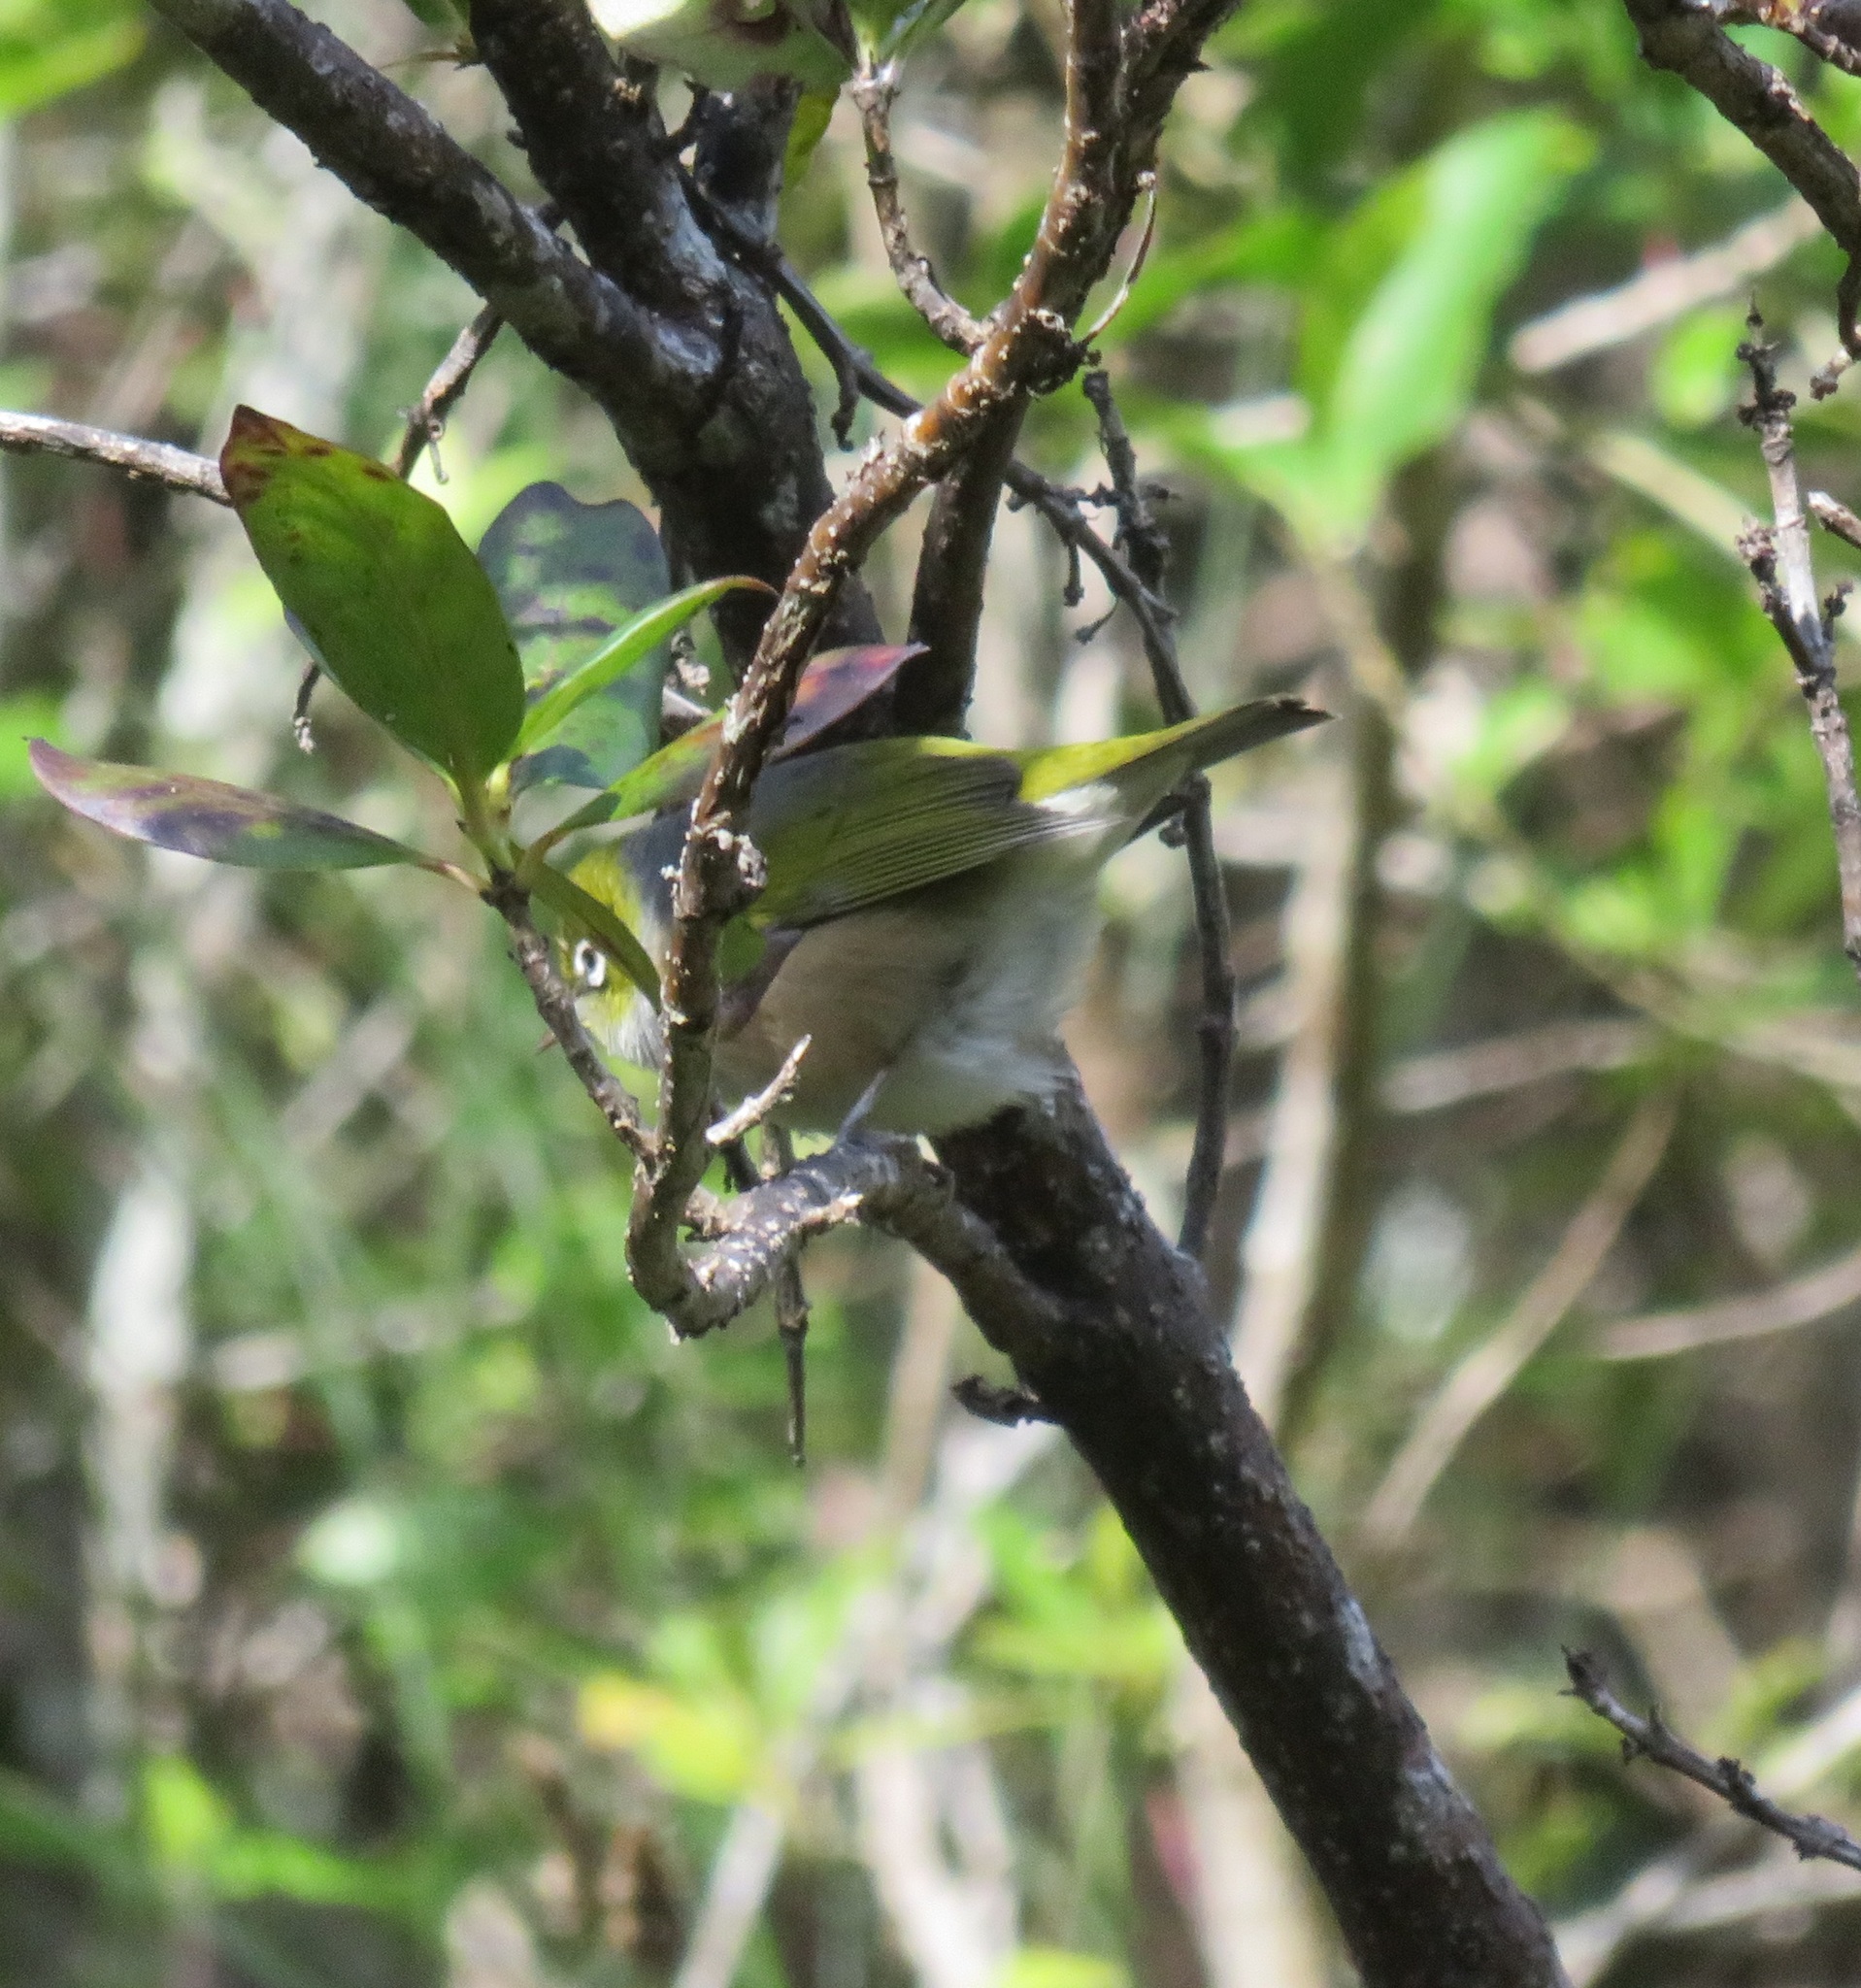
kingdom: Animalia
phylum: Chordata
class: Aves
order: Passeriformes
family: Zosteropidae
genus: Zosterops
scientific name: Zosterops lateralis
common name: Silvereye
